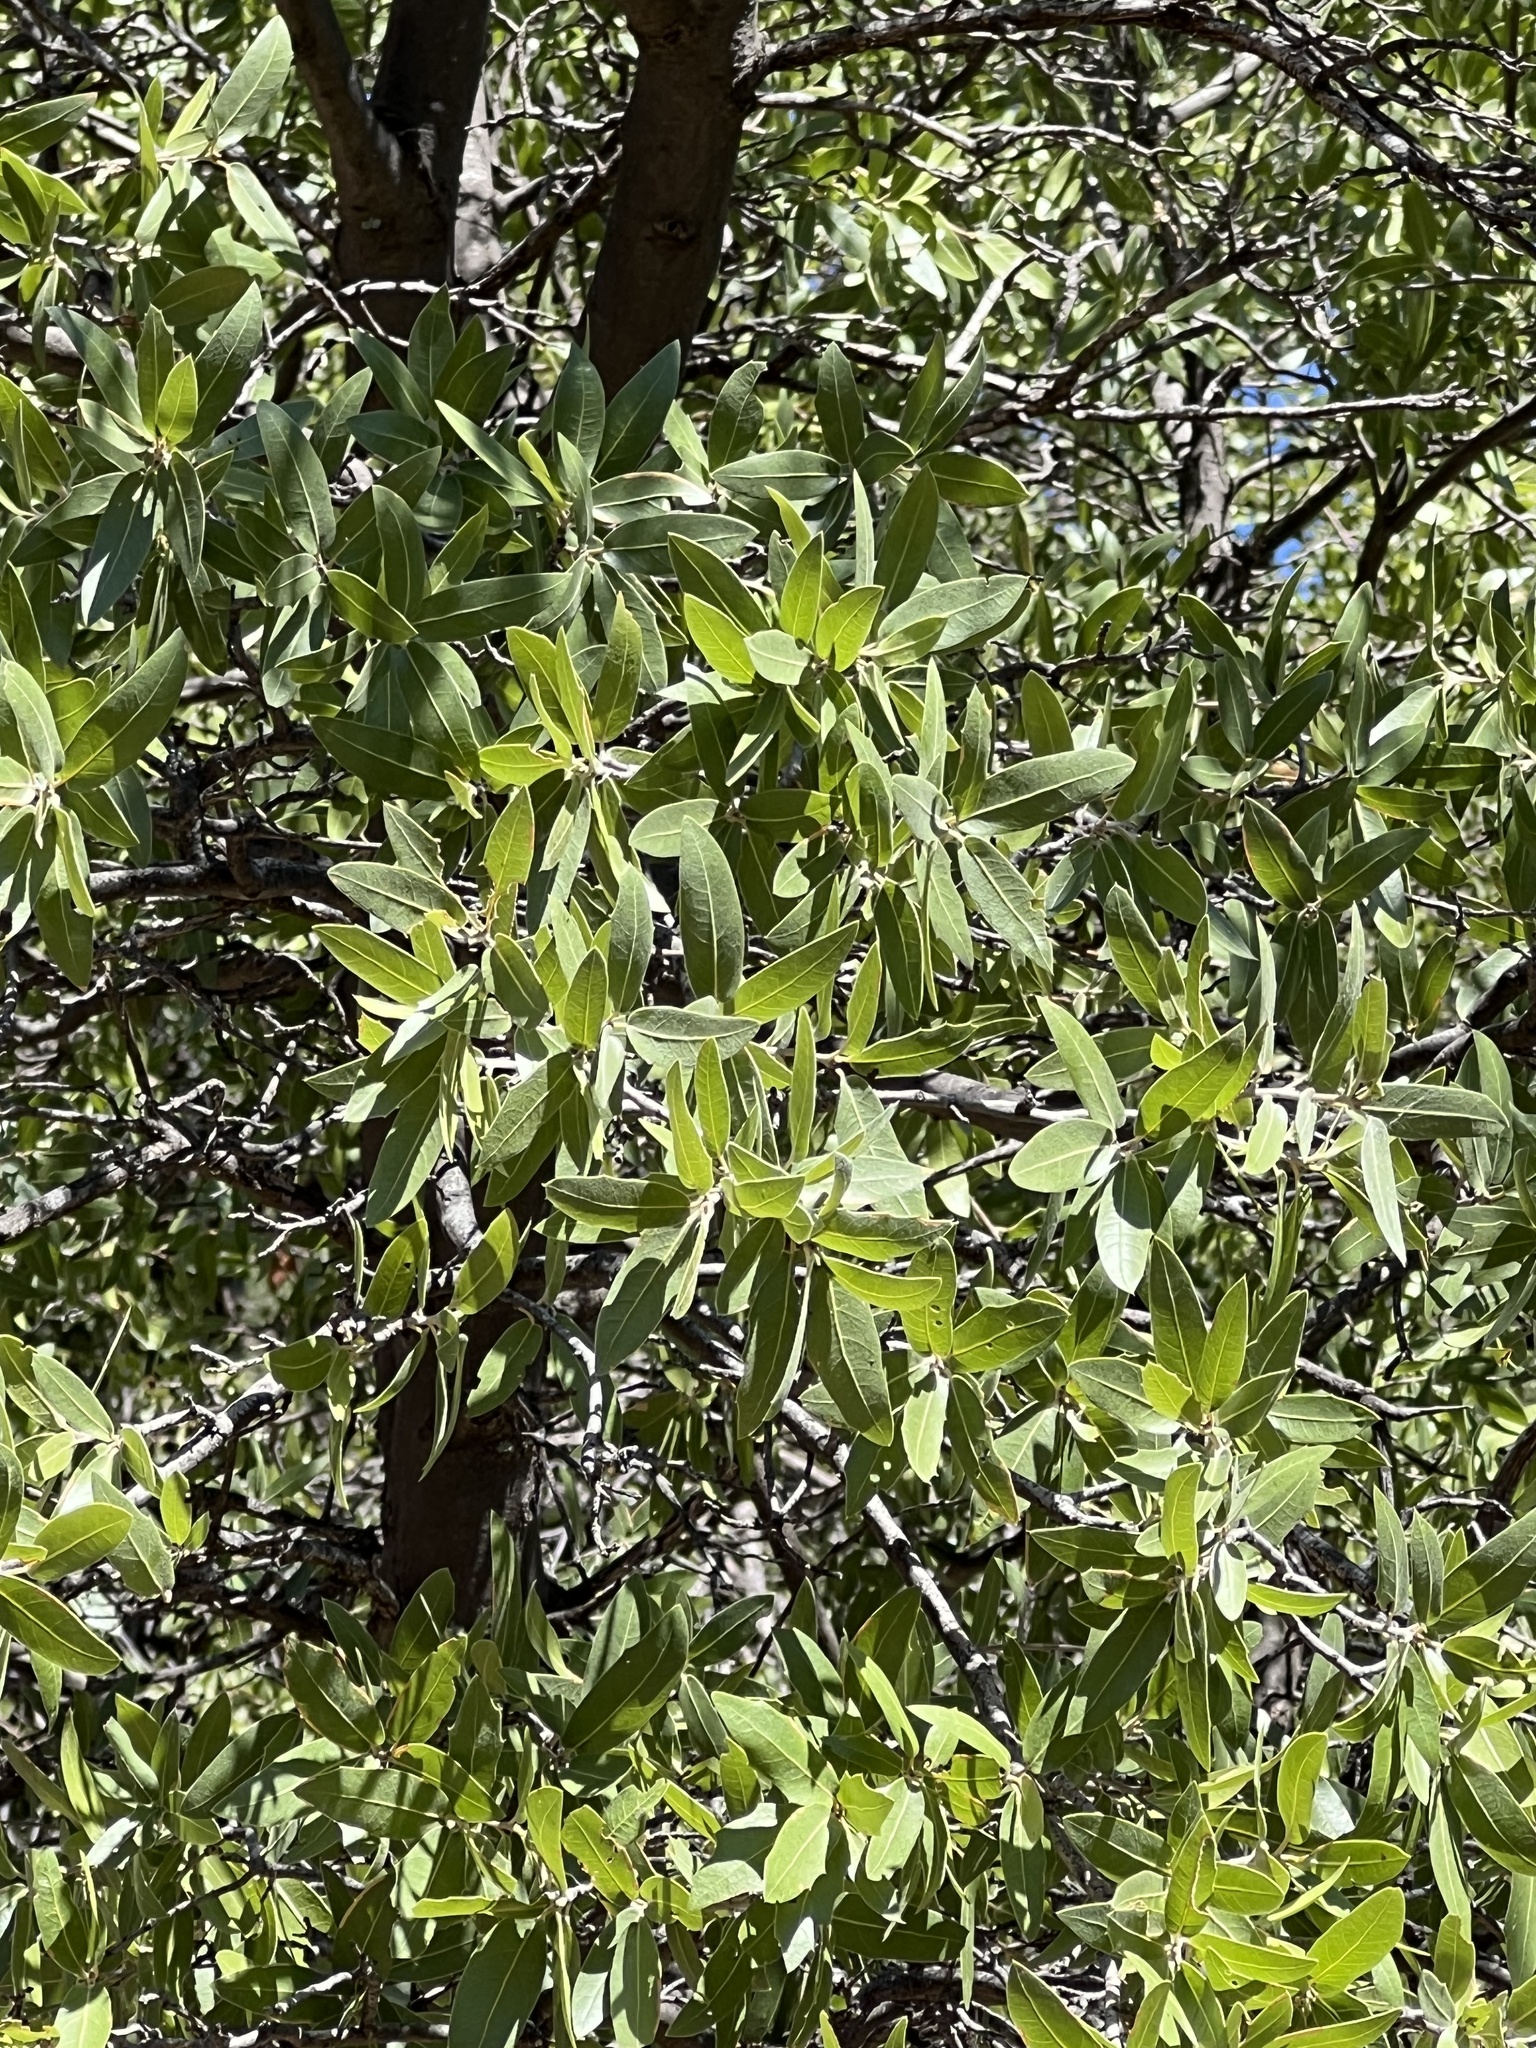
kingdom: Plantae
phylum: Tracheophyta
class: Magnoliopsida
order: Fagales
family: Fagaceae
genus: Quercus
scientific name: Quercus emoryi
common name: Emory oak
